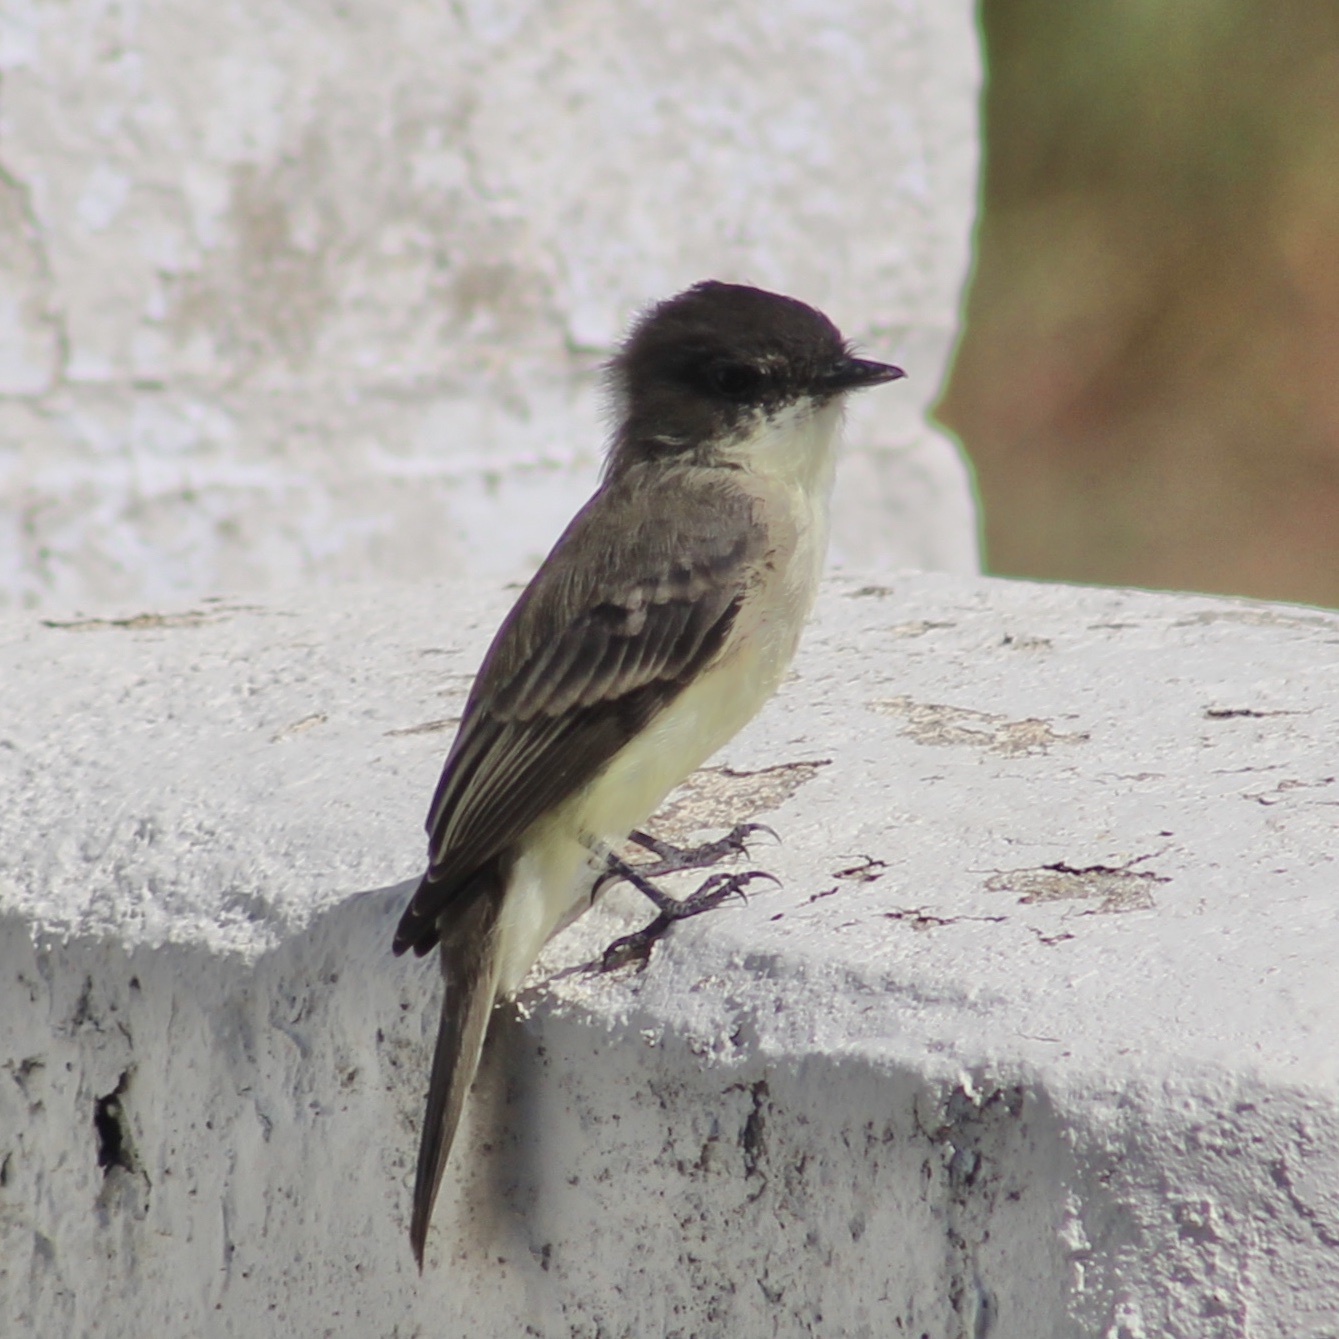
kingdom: Animalia
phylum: Chordata
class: Aves
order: Passeriformes
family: Tyrannidae
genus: Sayornis
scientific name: Sayornis phoebe
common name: Eastern phoebe
